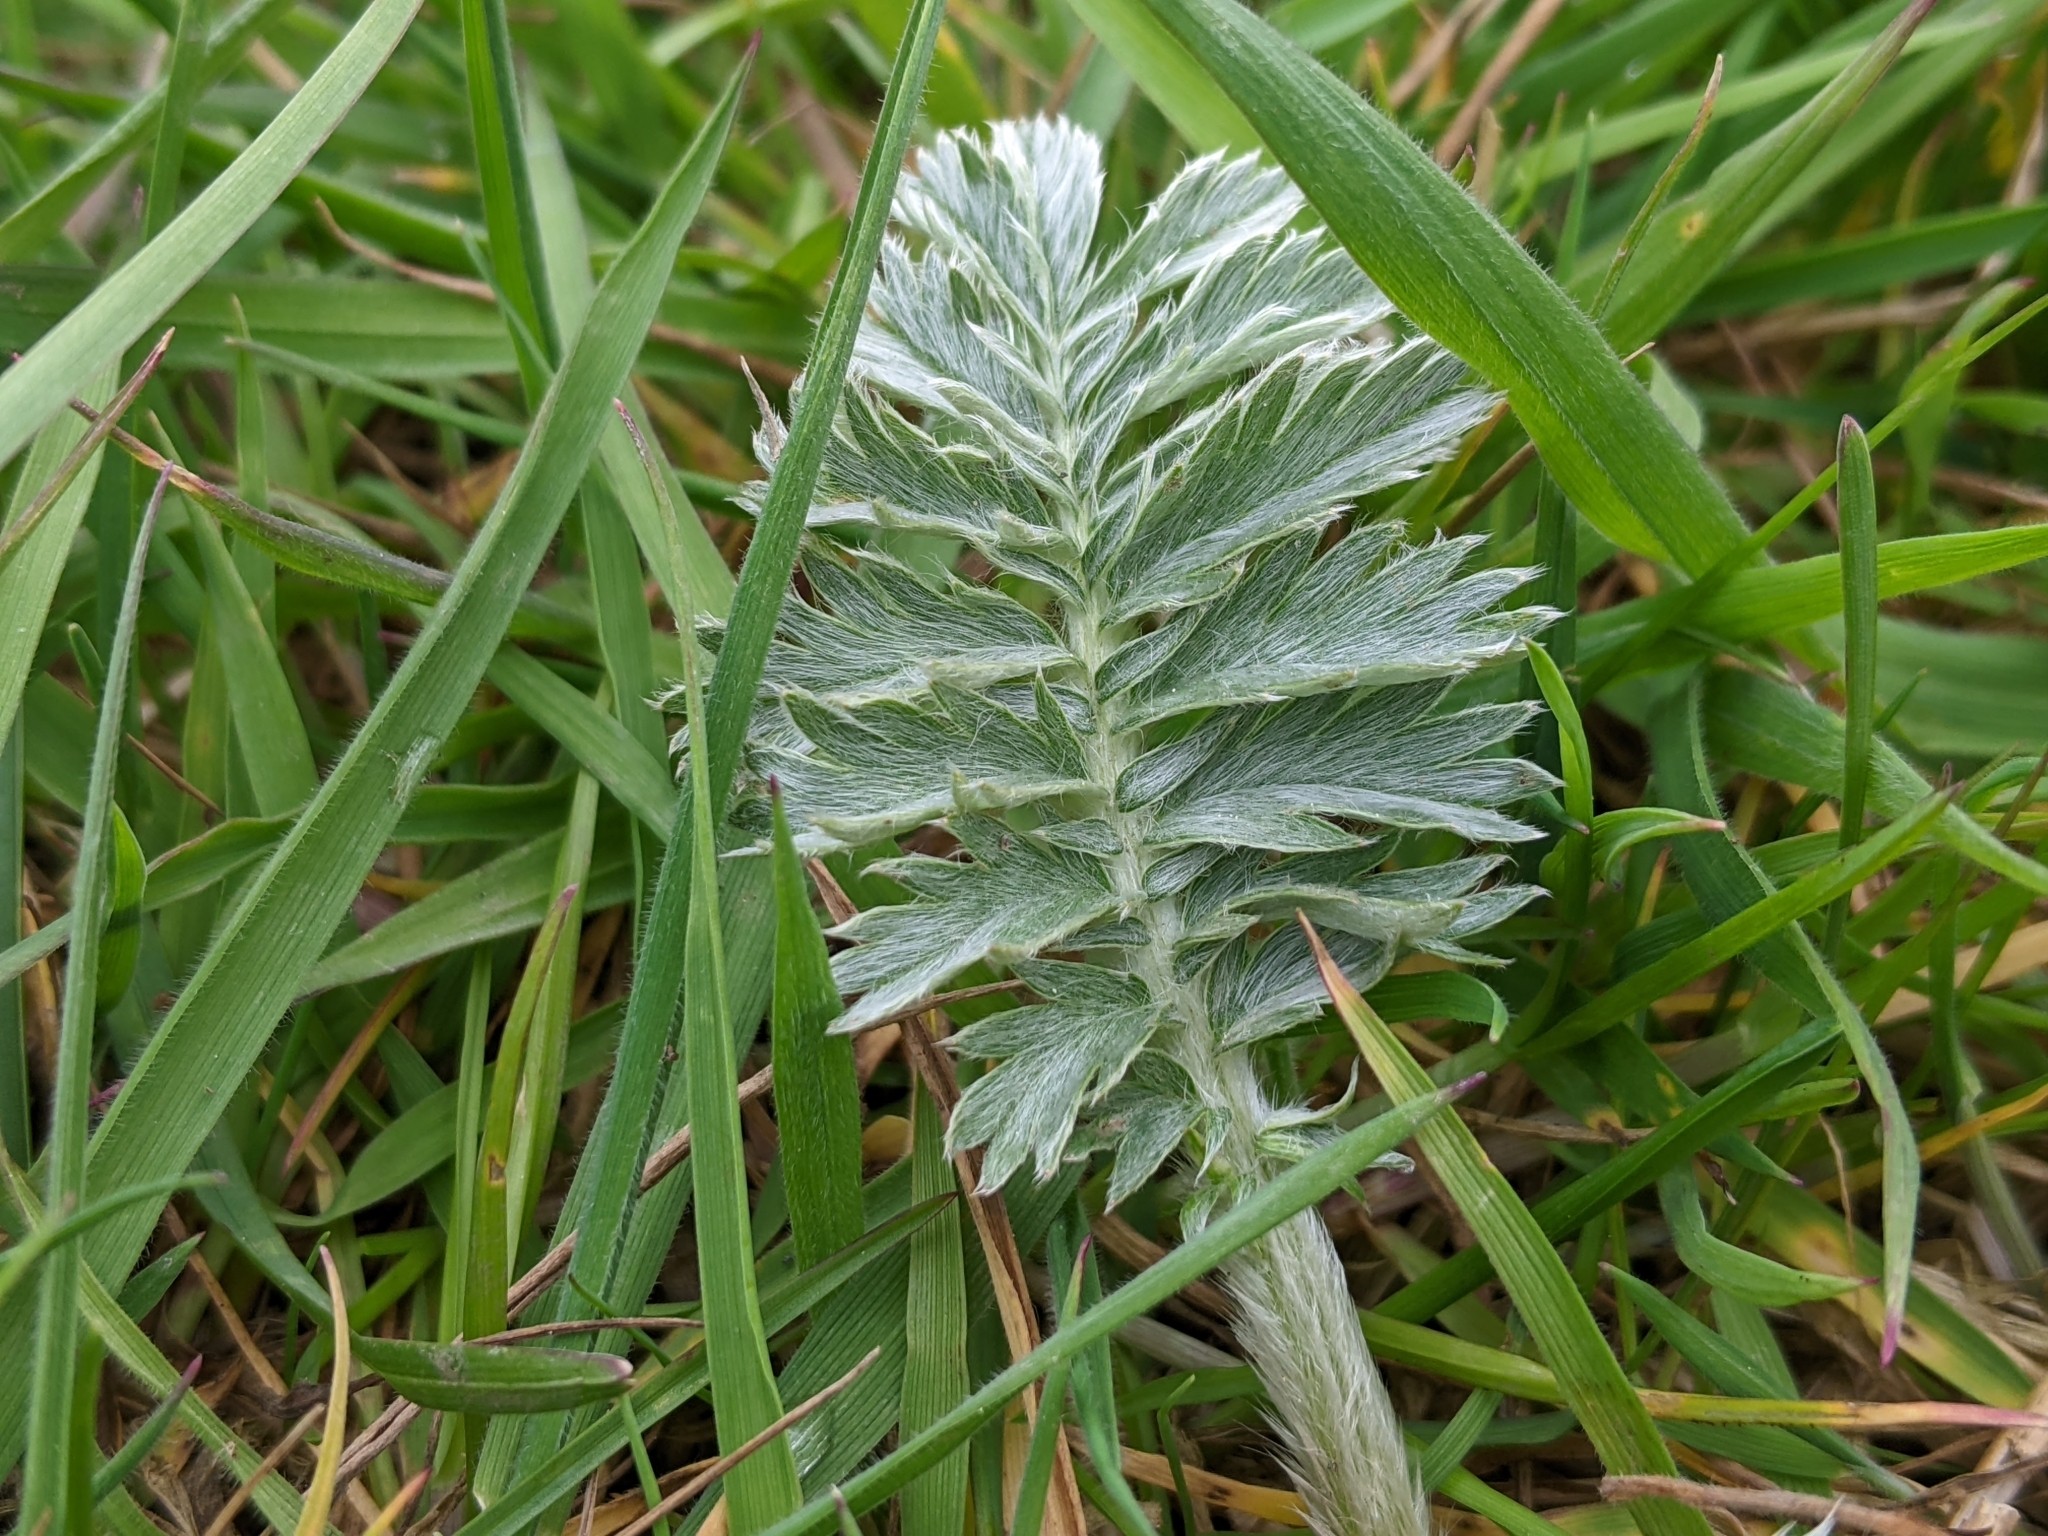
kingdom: Plantae
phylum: Tracheophyta
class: Magnoliopsida
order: Rosales
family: Rosaceae
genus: Argentina
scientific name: Argentina anserina
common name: Common silverweed
